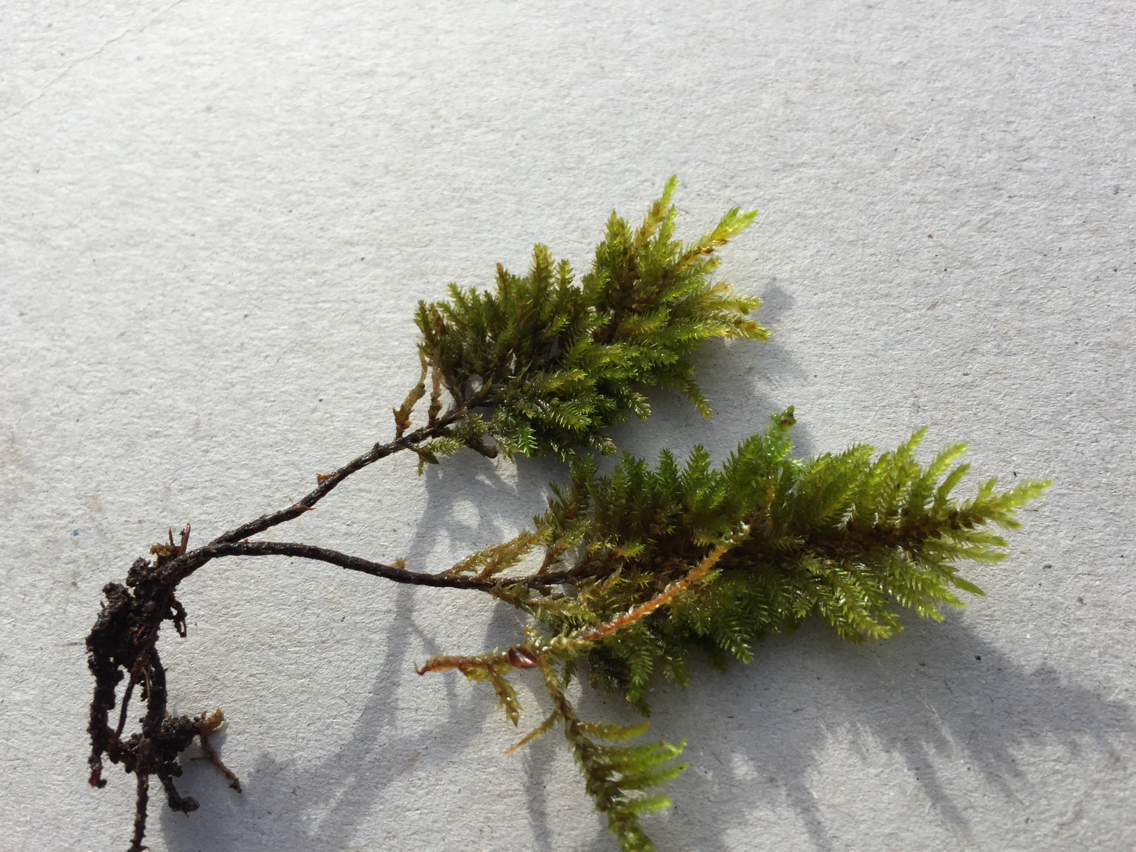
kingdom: Plantae
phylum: Bryophyta
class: Bryopsida
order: Hypnales
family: Cryphaeaceae
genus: Dendroalsia
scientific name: Dendroalsia abietina
